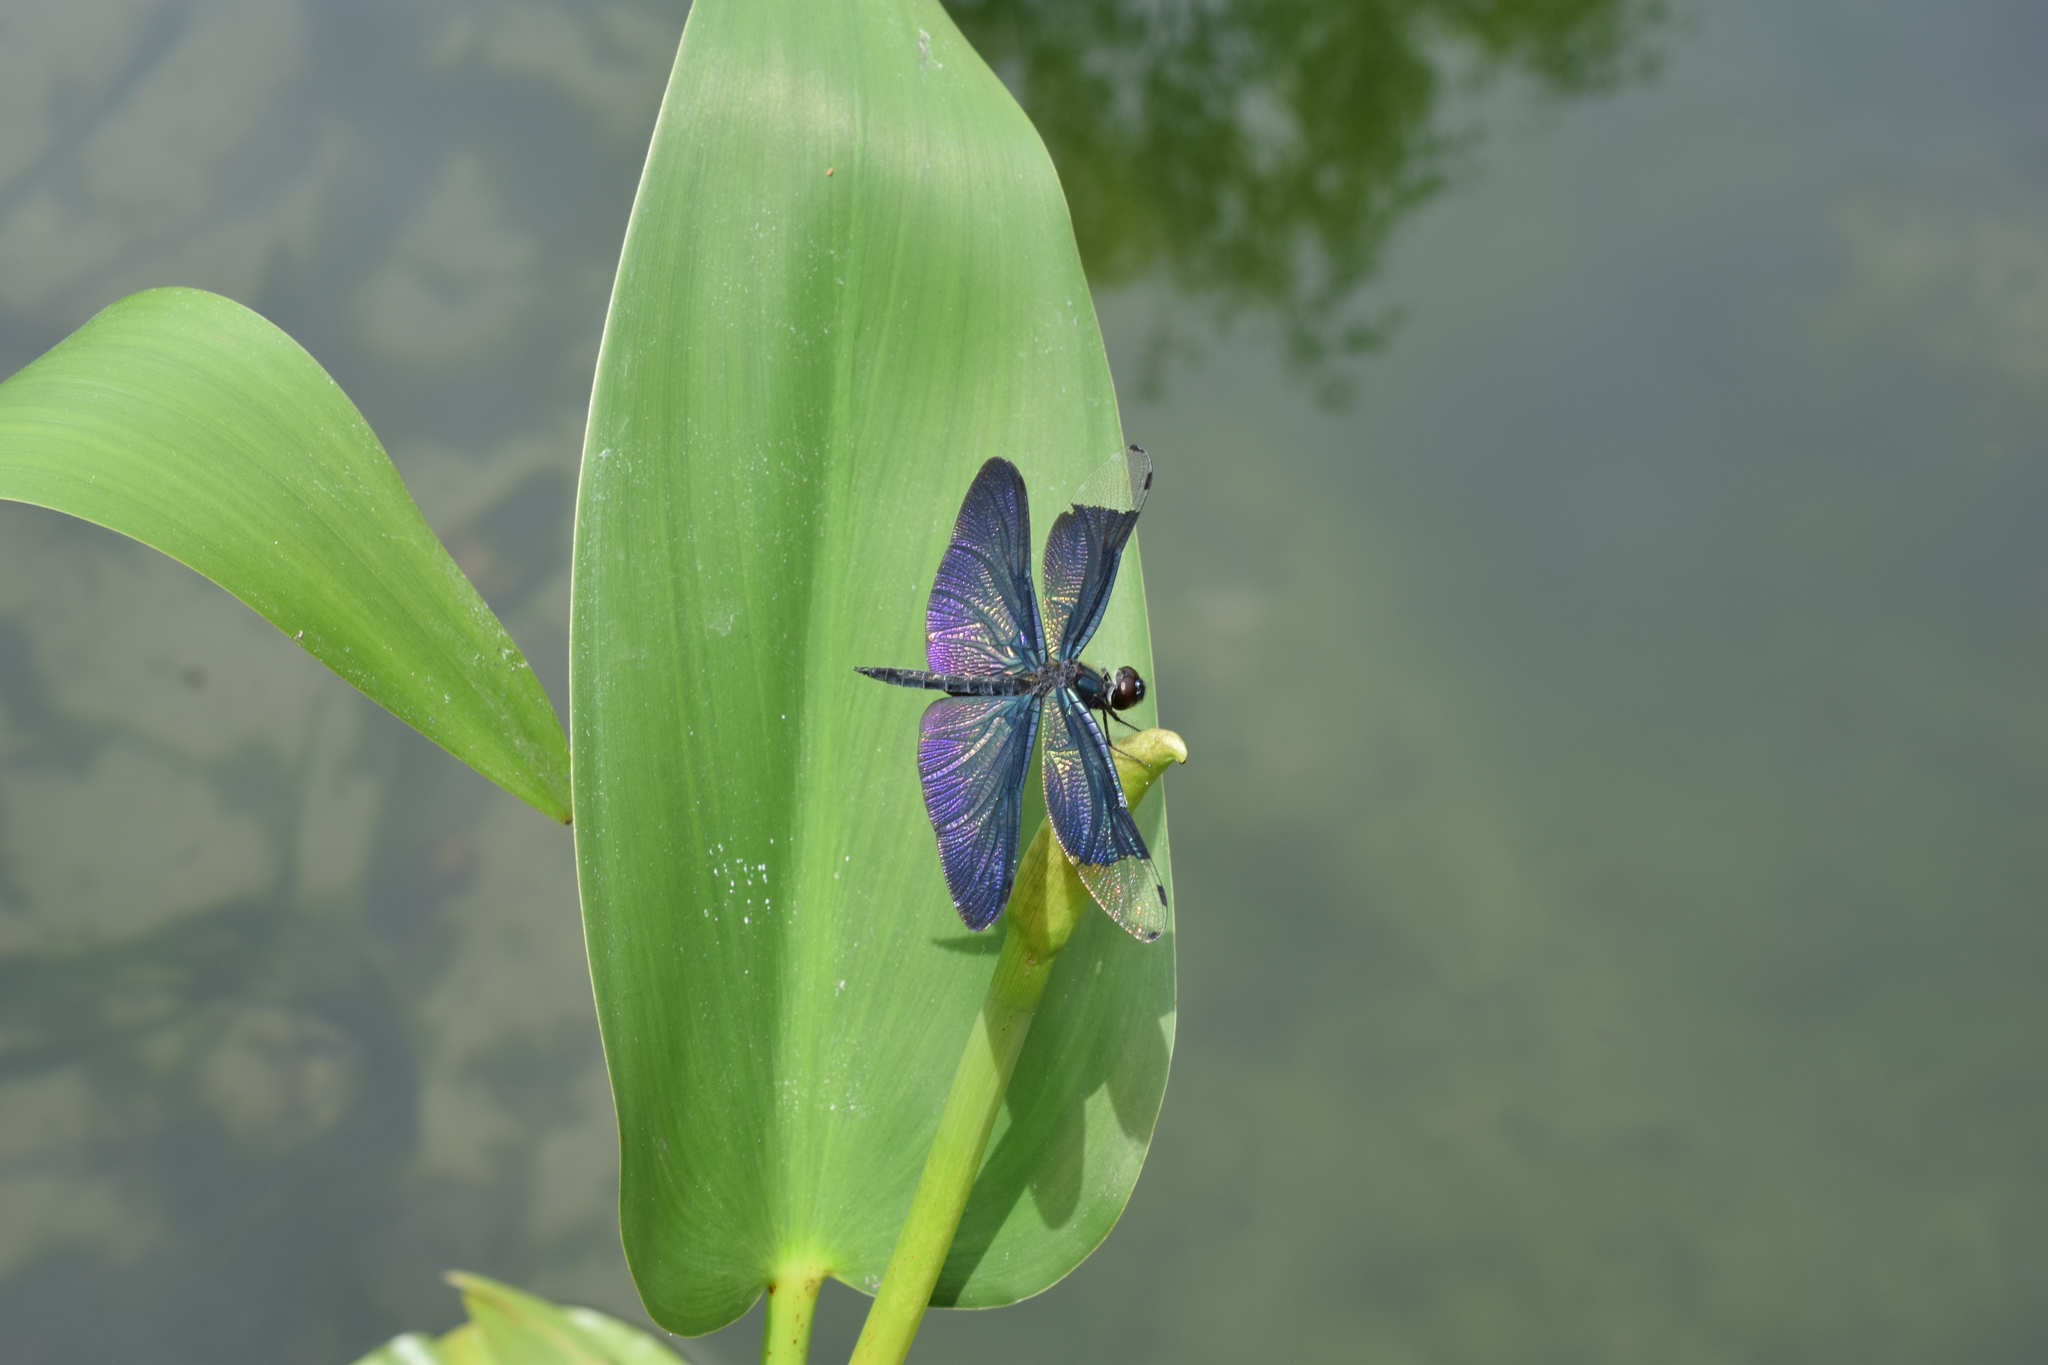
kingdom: Animalia
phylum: Arthropoda
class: Insecta
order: Odonata
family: Libellulidae
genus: Rhyothemis
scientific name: Rhyothemis fuliginosa
